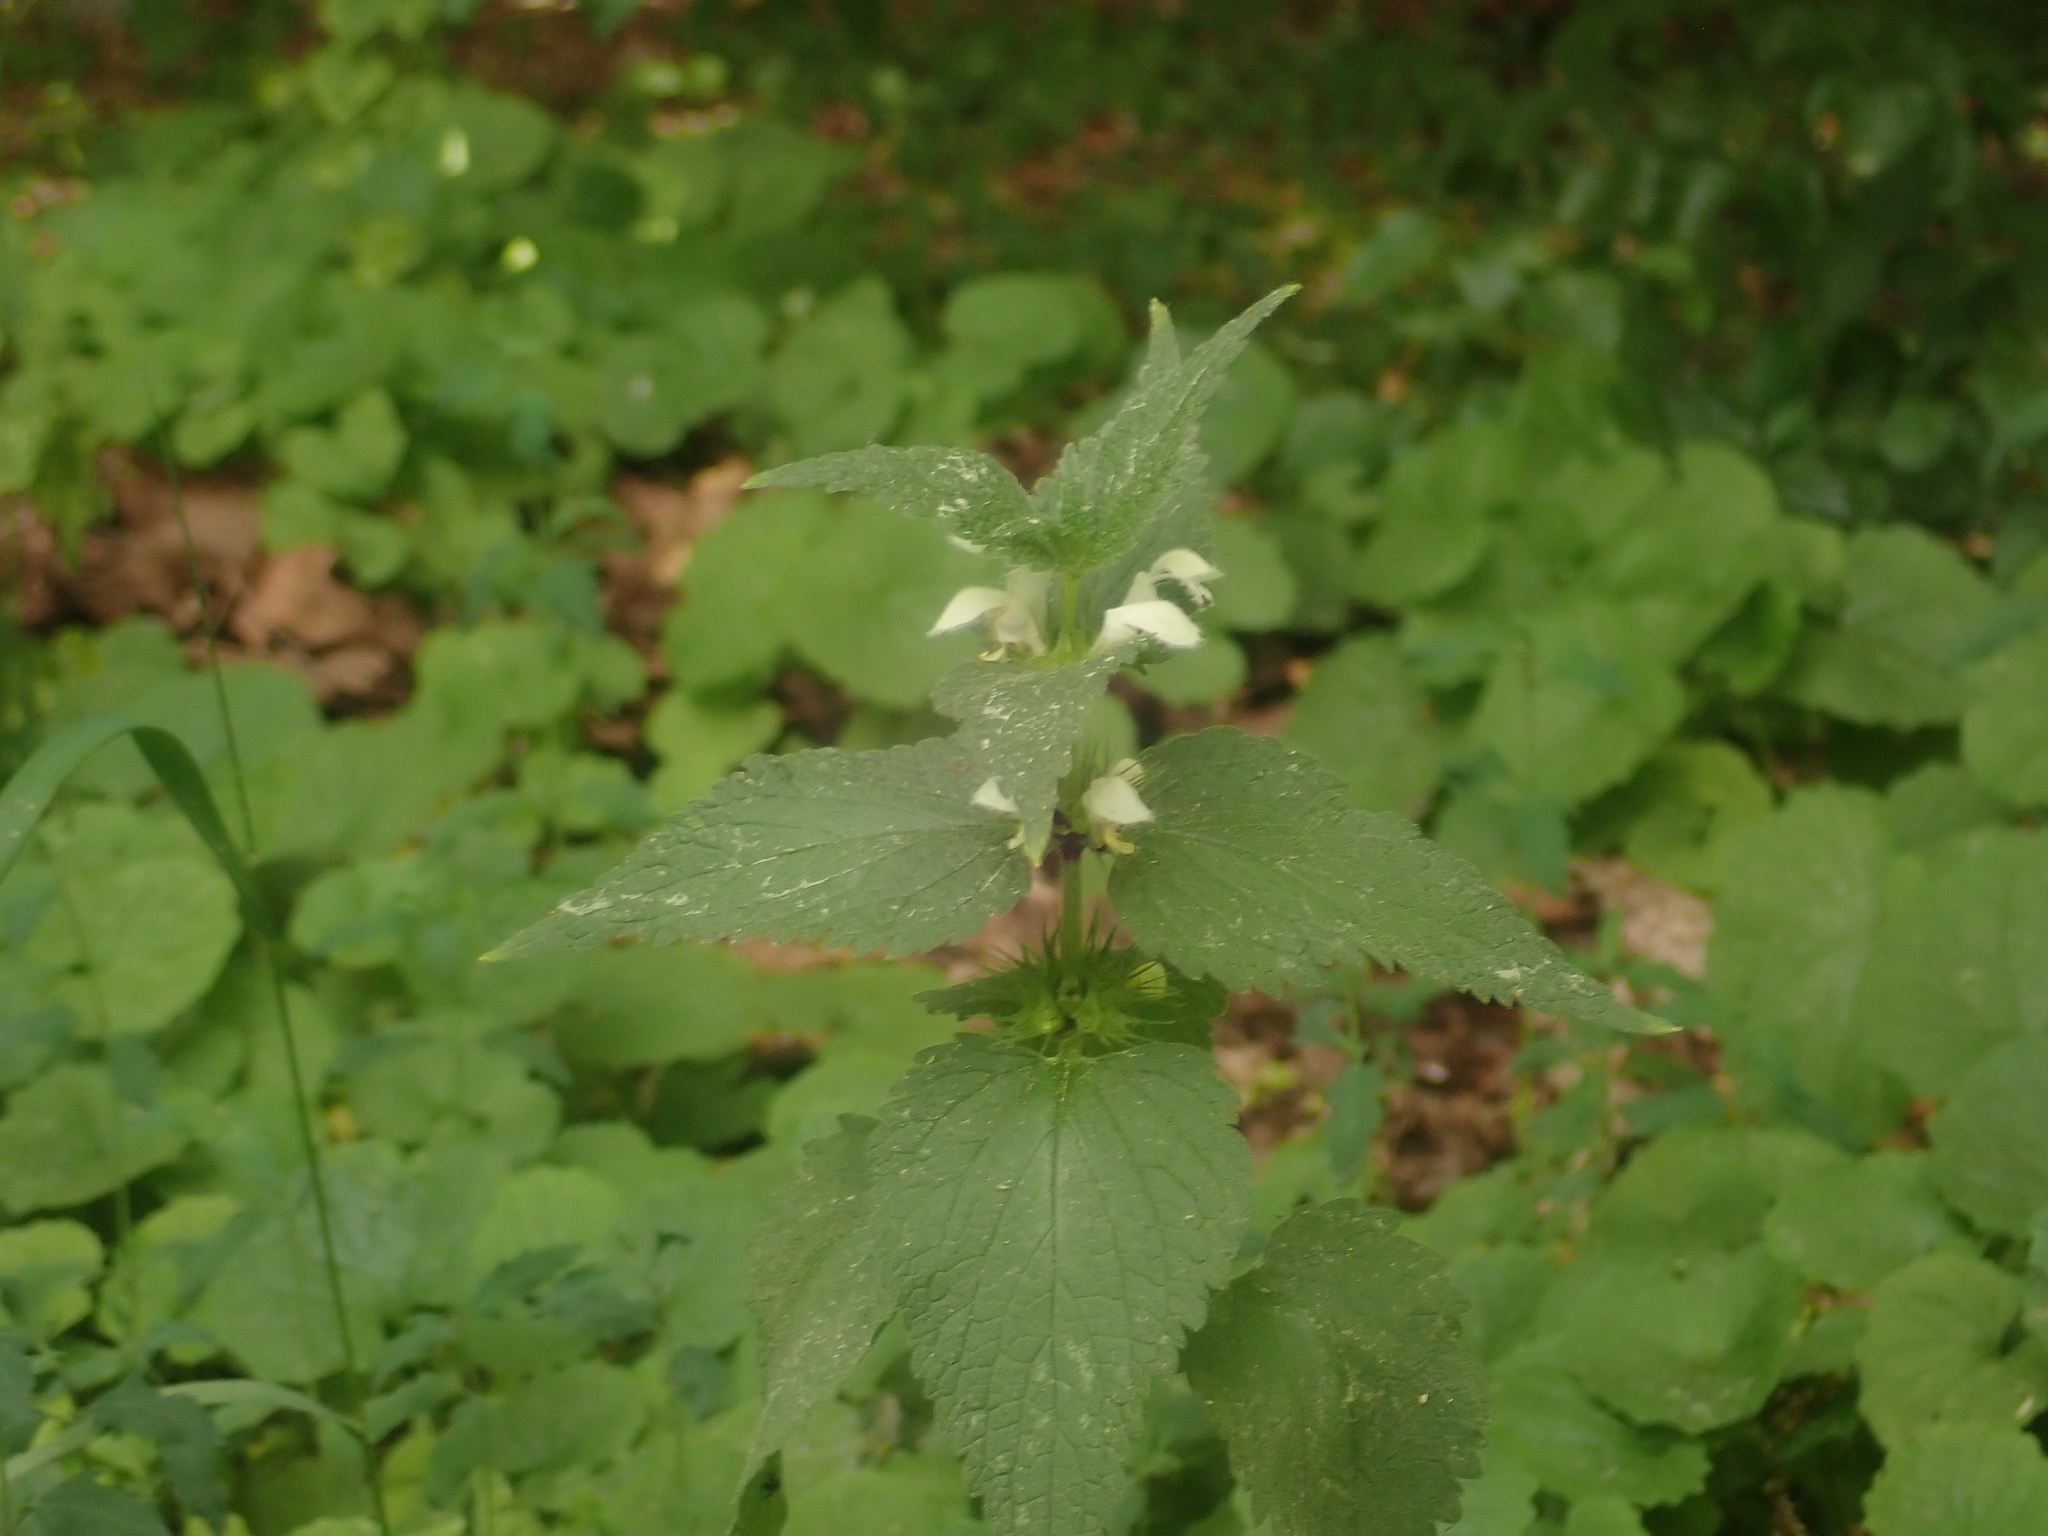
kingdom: Plantae
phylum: Tracheophyta
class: Magnoliopsida
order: Lamiales
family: Lamiaceae
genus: Lamium
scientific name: Lamium album
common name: White dead-nettle
